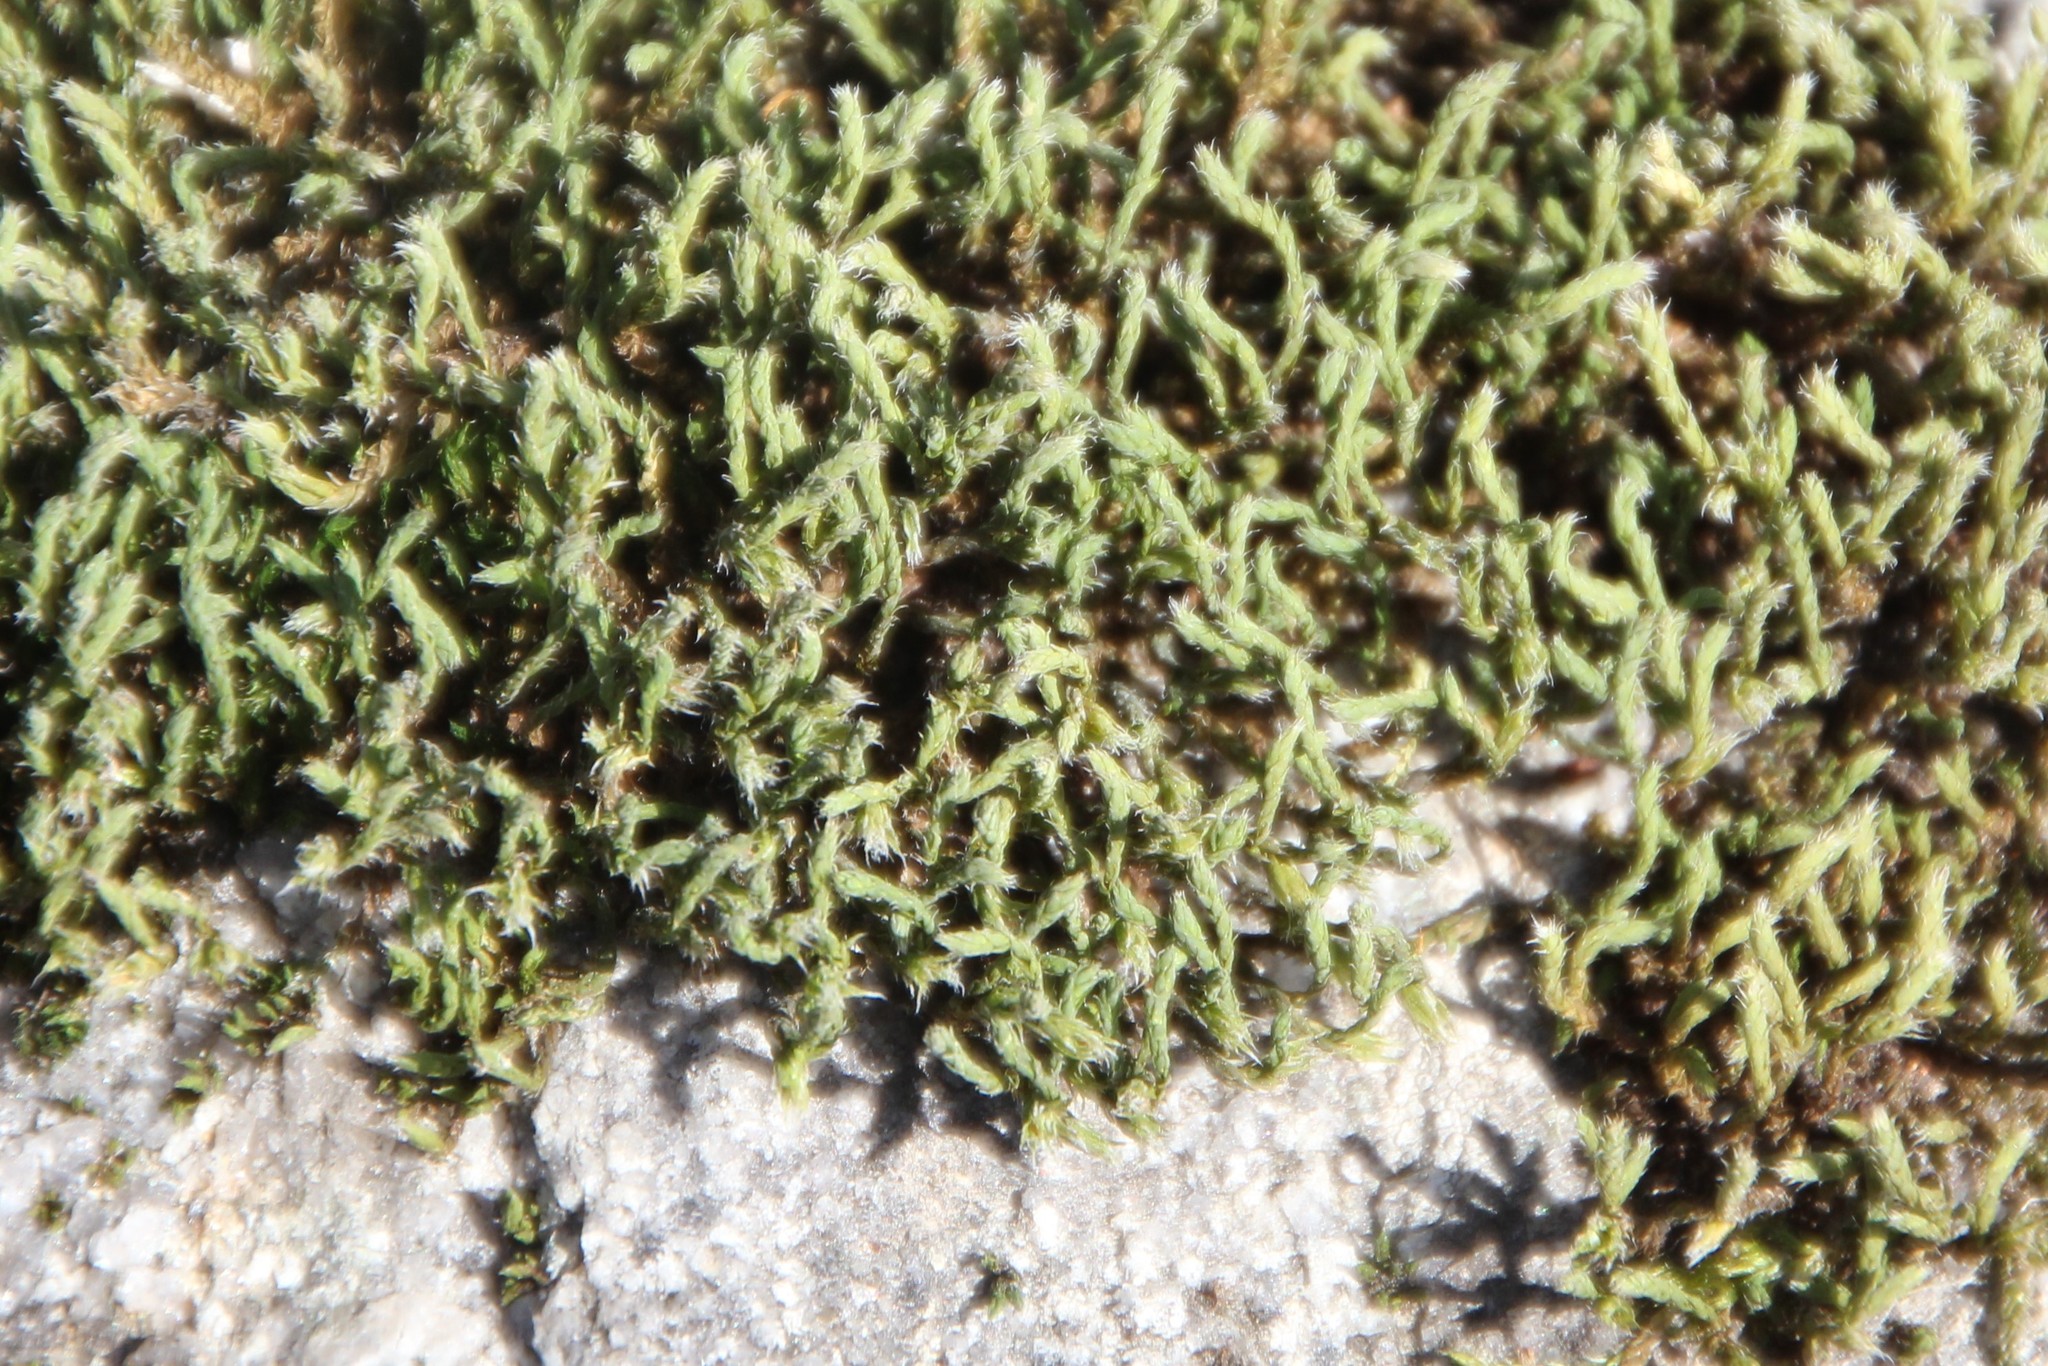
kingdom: Plantae
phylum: Bryophyta
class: Bryopsida
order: Hedwigiales
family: Hedwigiaceae
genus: Hedwigia
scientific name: Hedwigia ciliata
